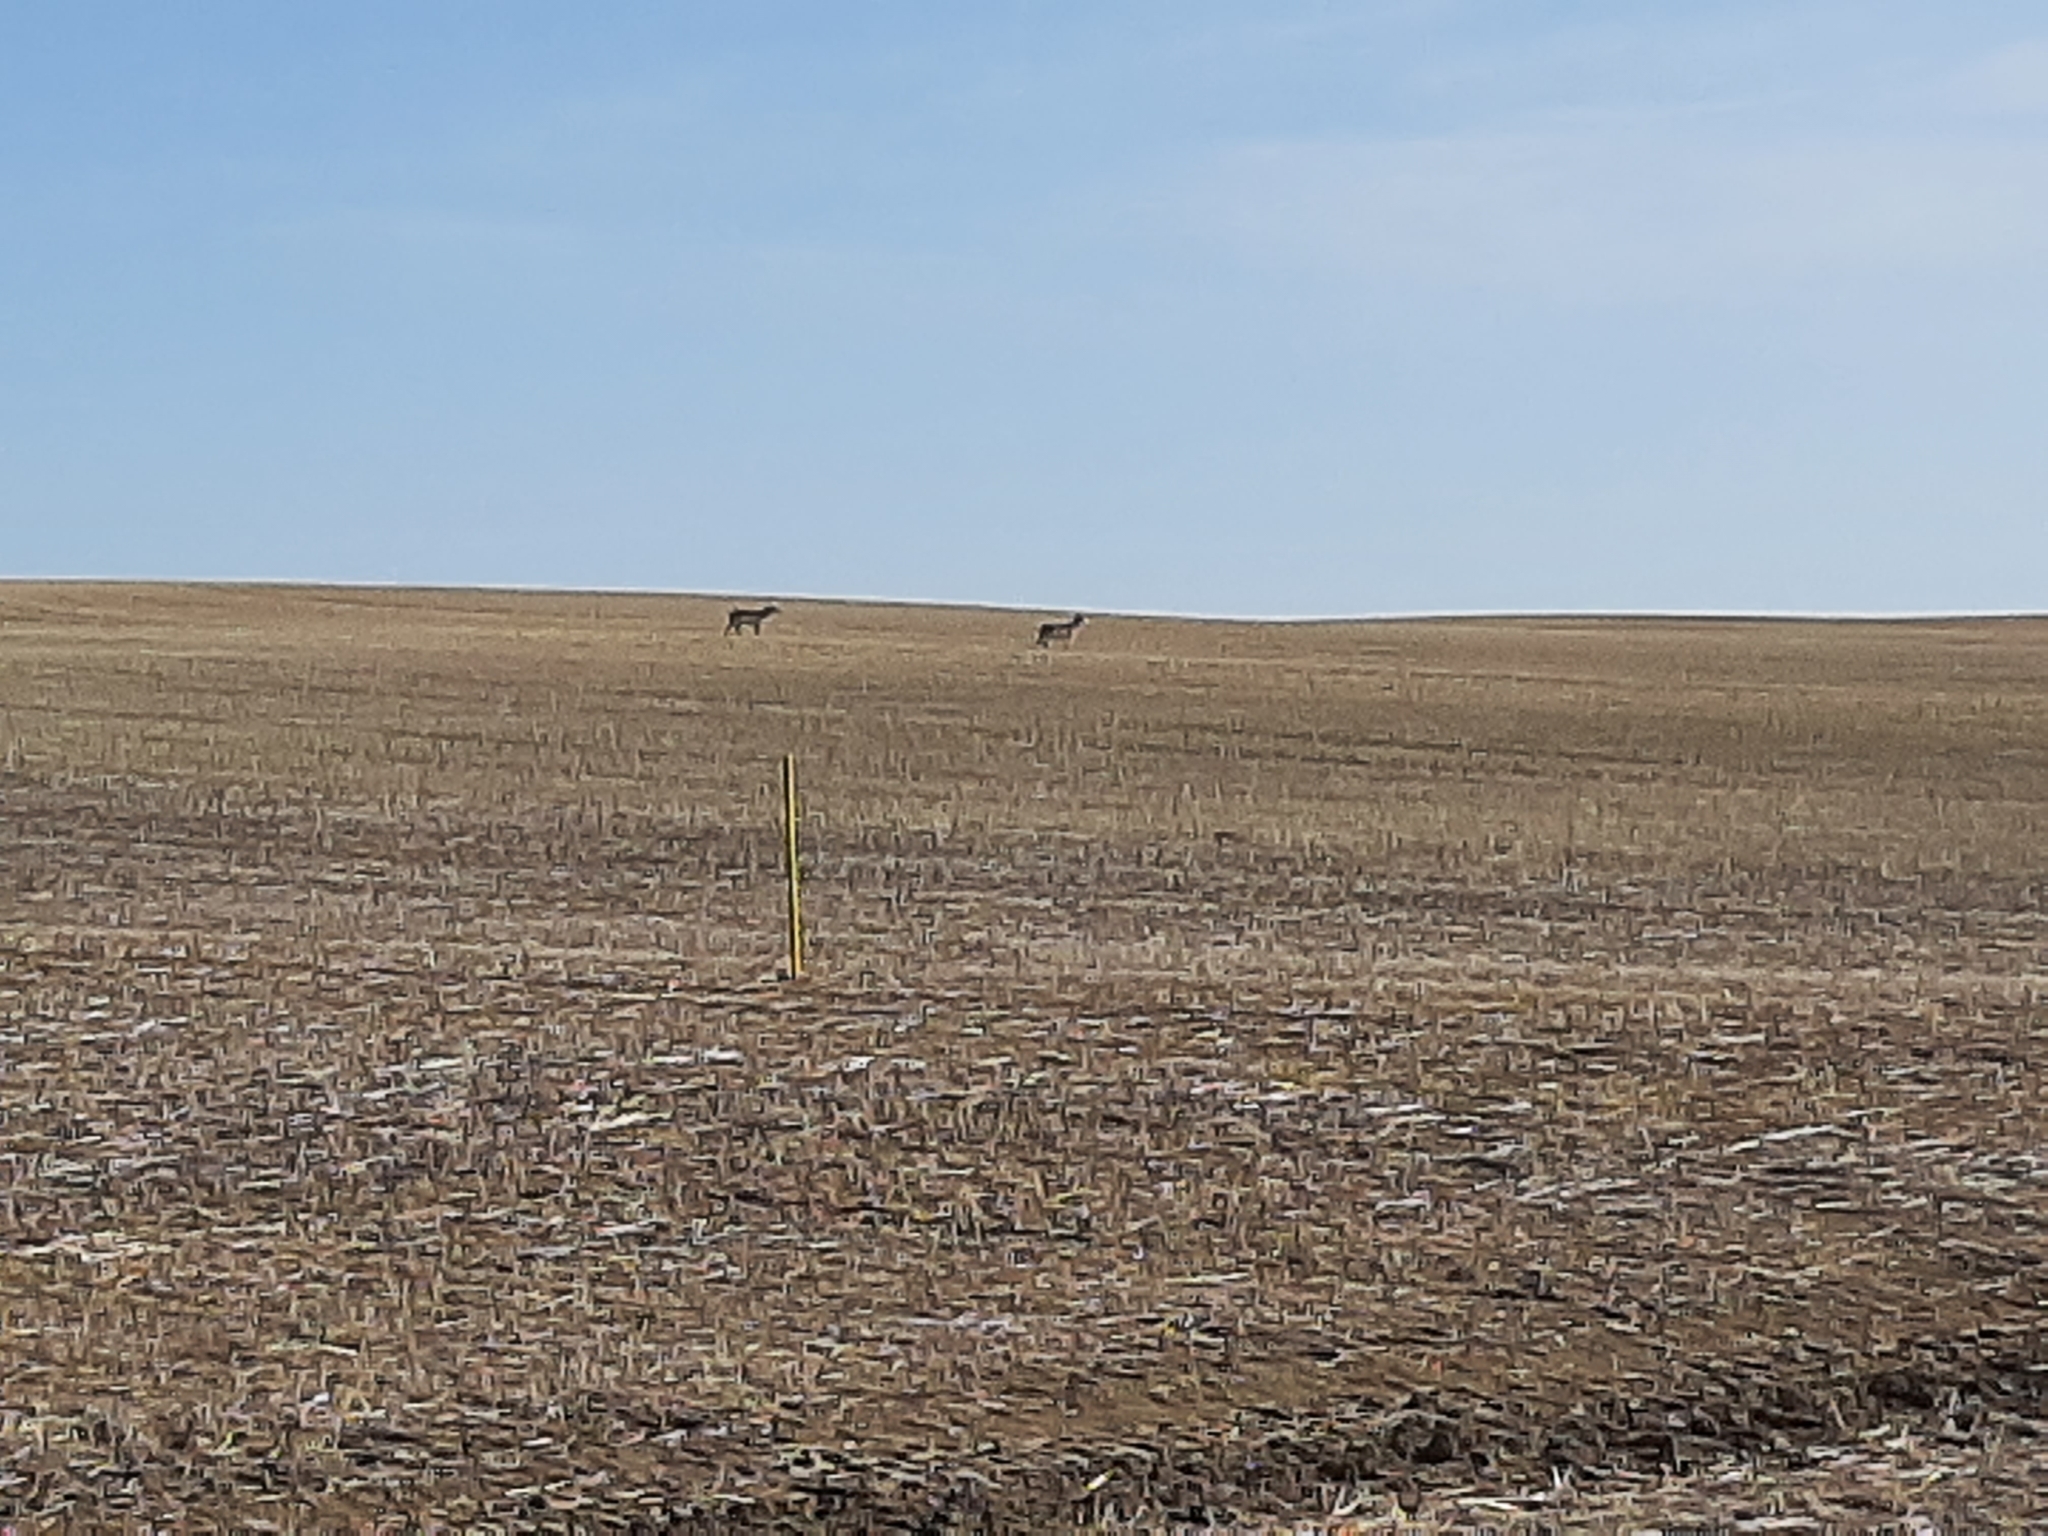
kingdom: Animalia
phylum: Chordata
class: Mammalia
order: Artiodactyla
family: Antilocapridae
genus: Antilocapra
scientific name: Antilocapra americana
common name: Pronghorn
